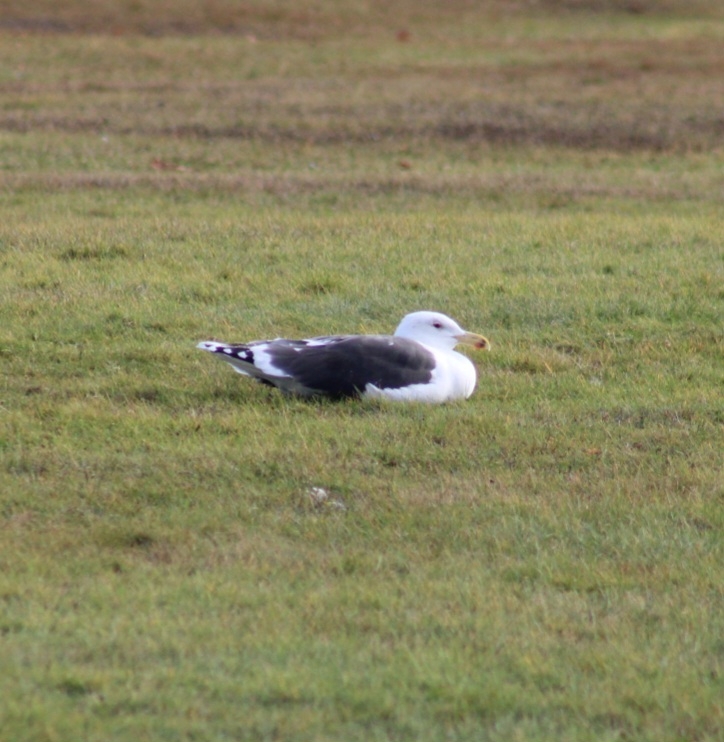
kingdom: Animalia
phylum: Chordata
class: Aves
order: Charadriiformes
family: Laridae
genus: Larus
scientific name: Larus marinus
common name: Great black-backed gull
